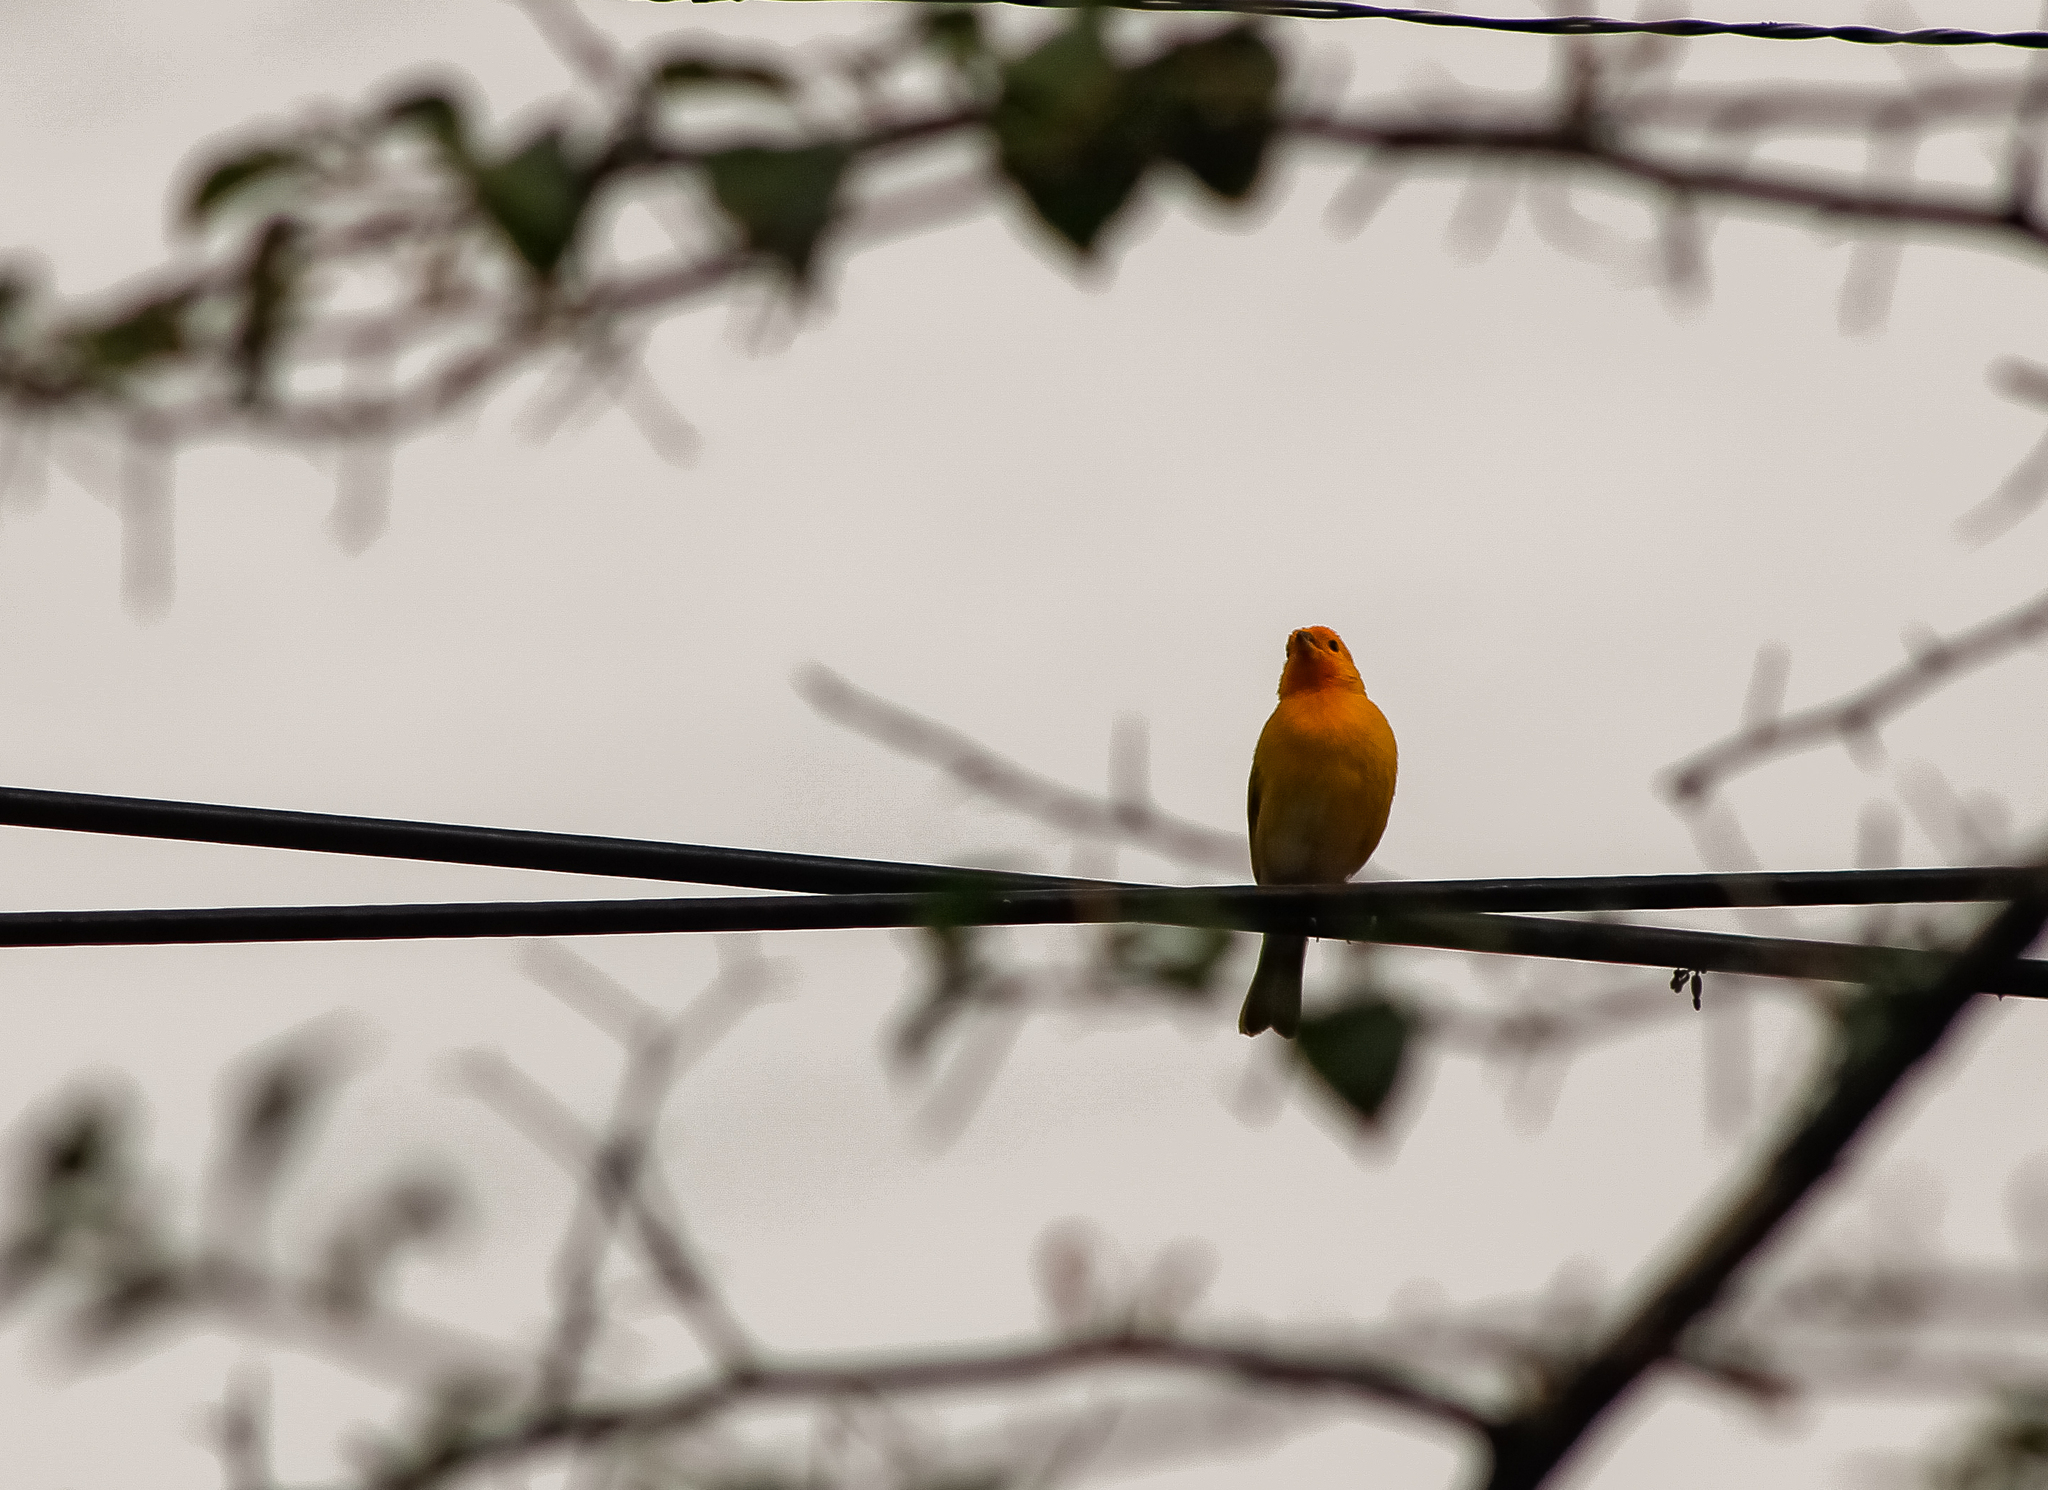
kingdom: Animalia
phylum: Chordata
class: Aves
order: Passeriformes
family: Thraupidae
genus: Sicalis
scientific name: Sicalis flaveola
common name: Saffron finch
